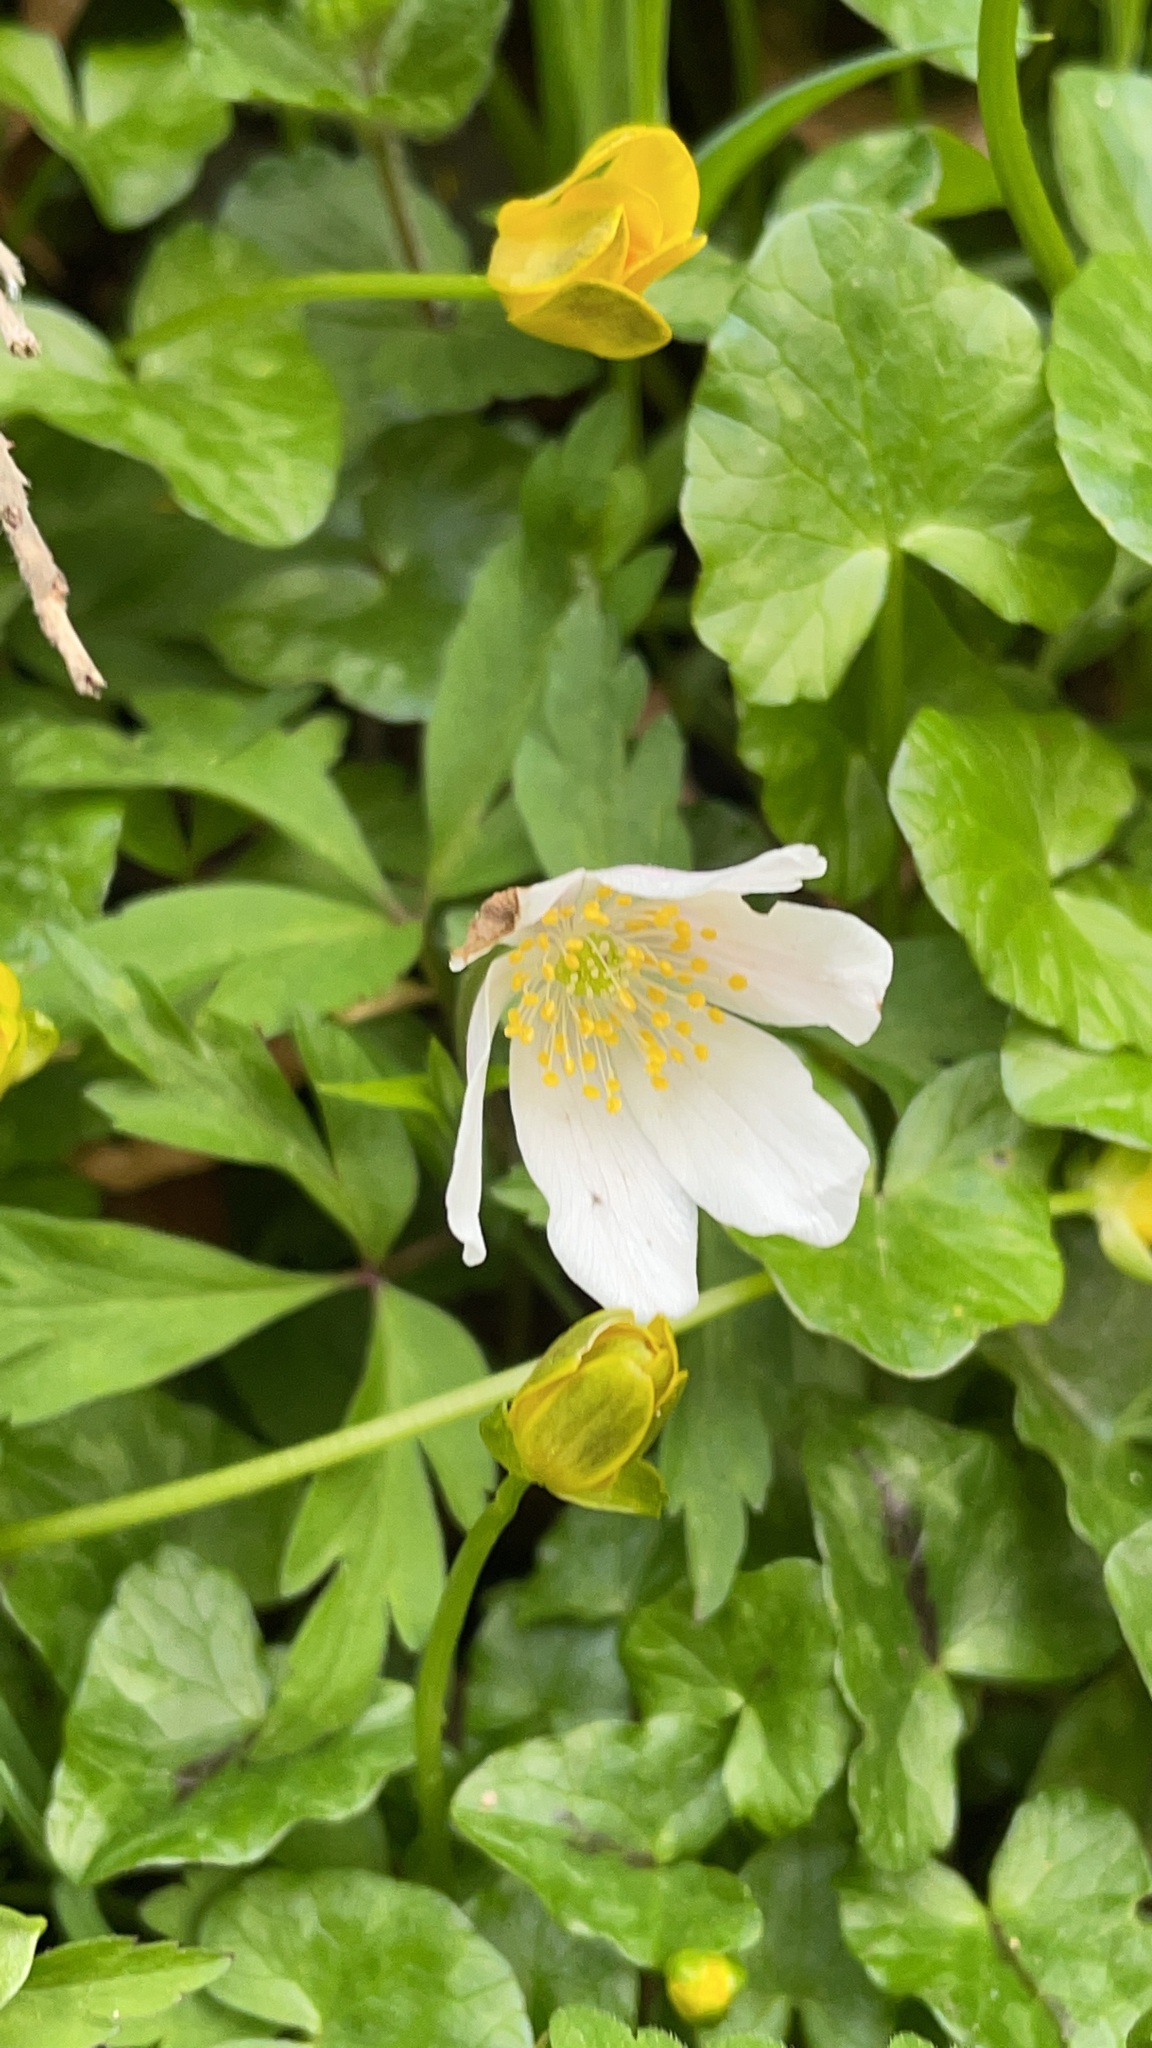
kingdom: Plantae
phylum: Tracheophyta
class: Magnoliopsida
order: Ranunculales
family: Ranunculaceae
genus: Anemone
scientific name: Anemone nemorosa
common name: Wood anemone
